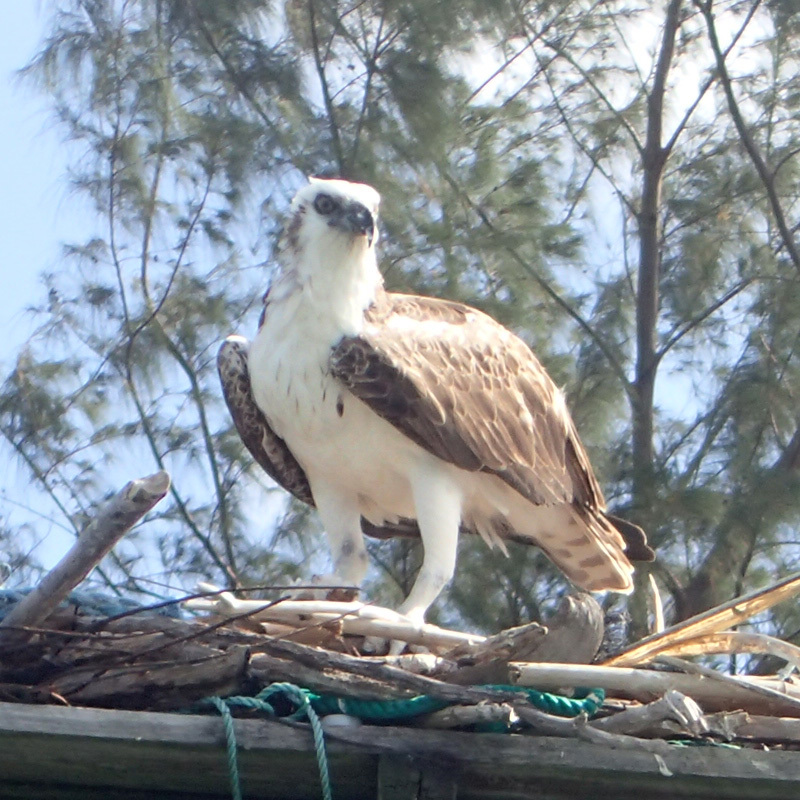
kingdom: Animalia
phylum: Chordata
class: Aves
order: Accipitriformes
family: Pandionidae
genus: Pandion
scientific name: Pandion haliaetus
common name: Osprey
